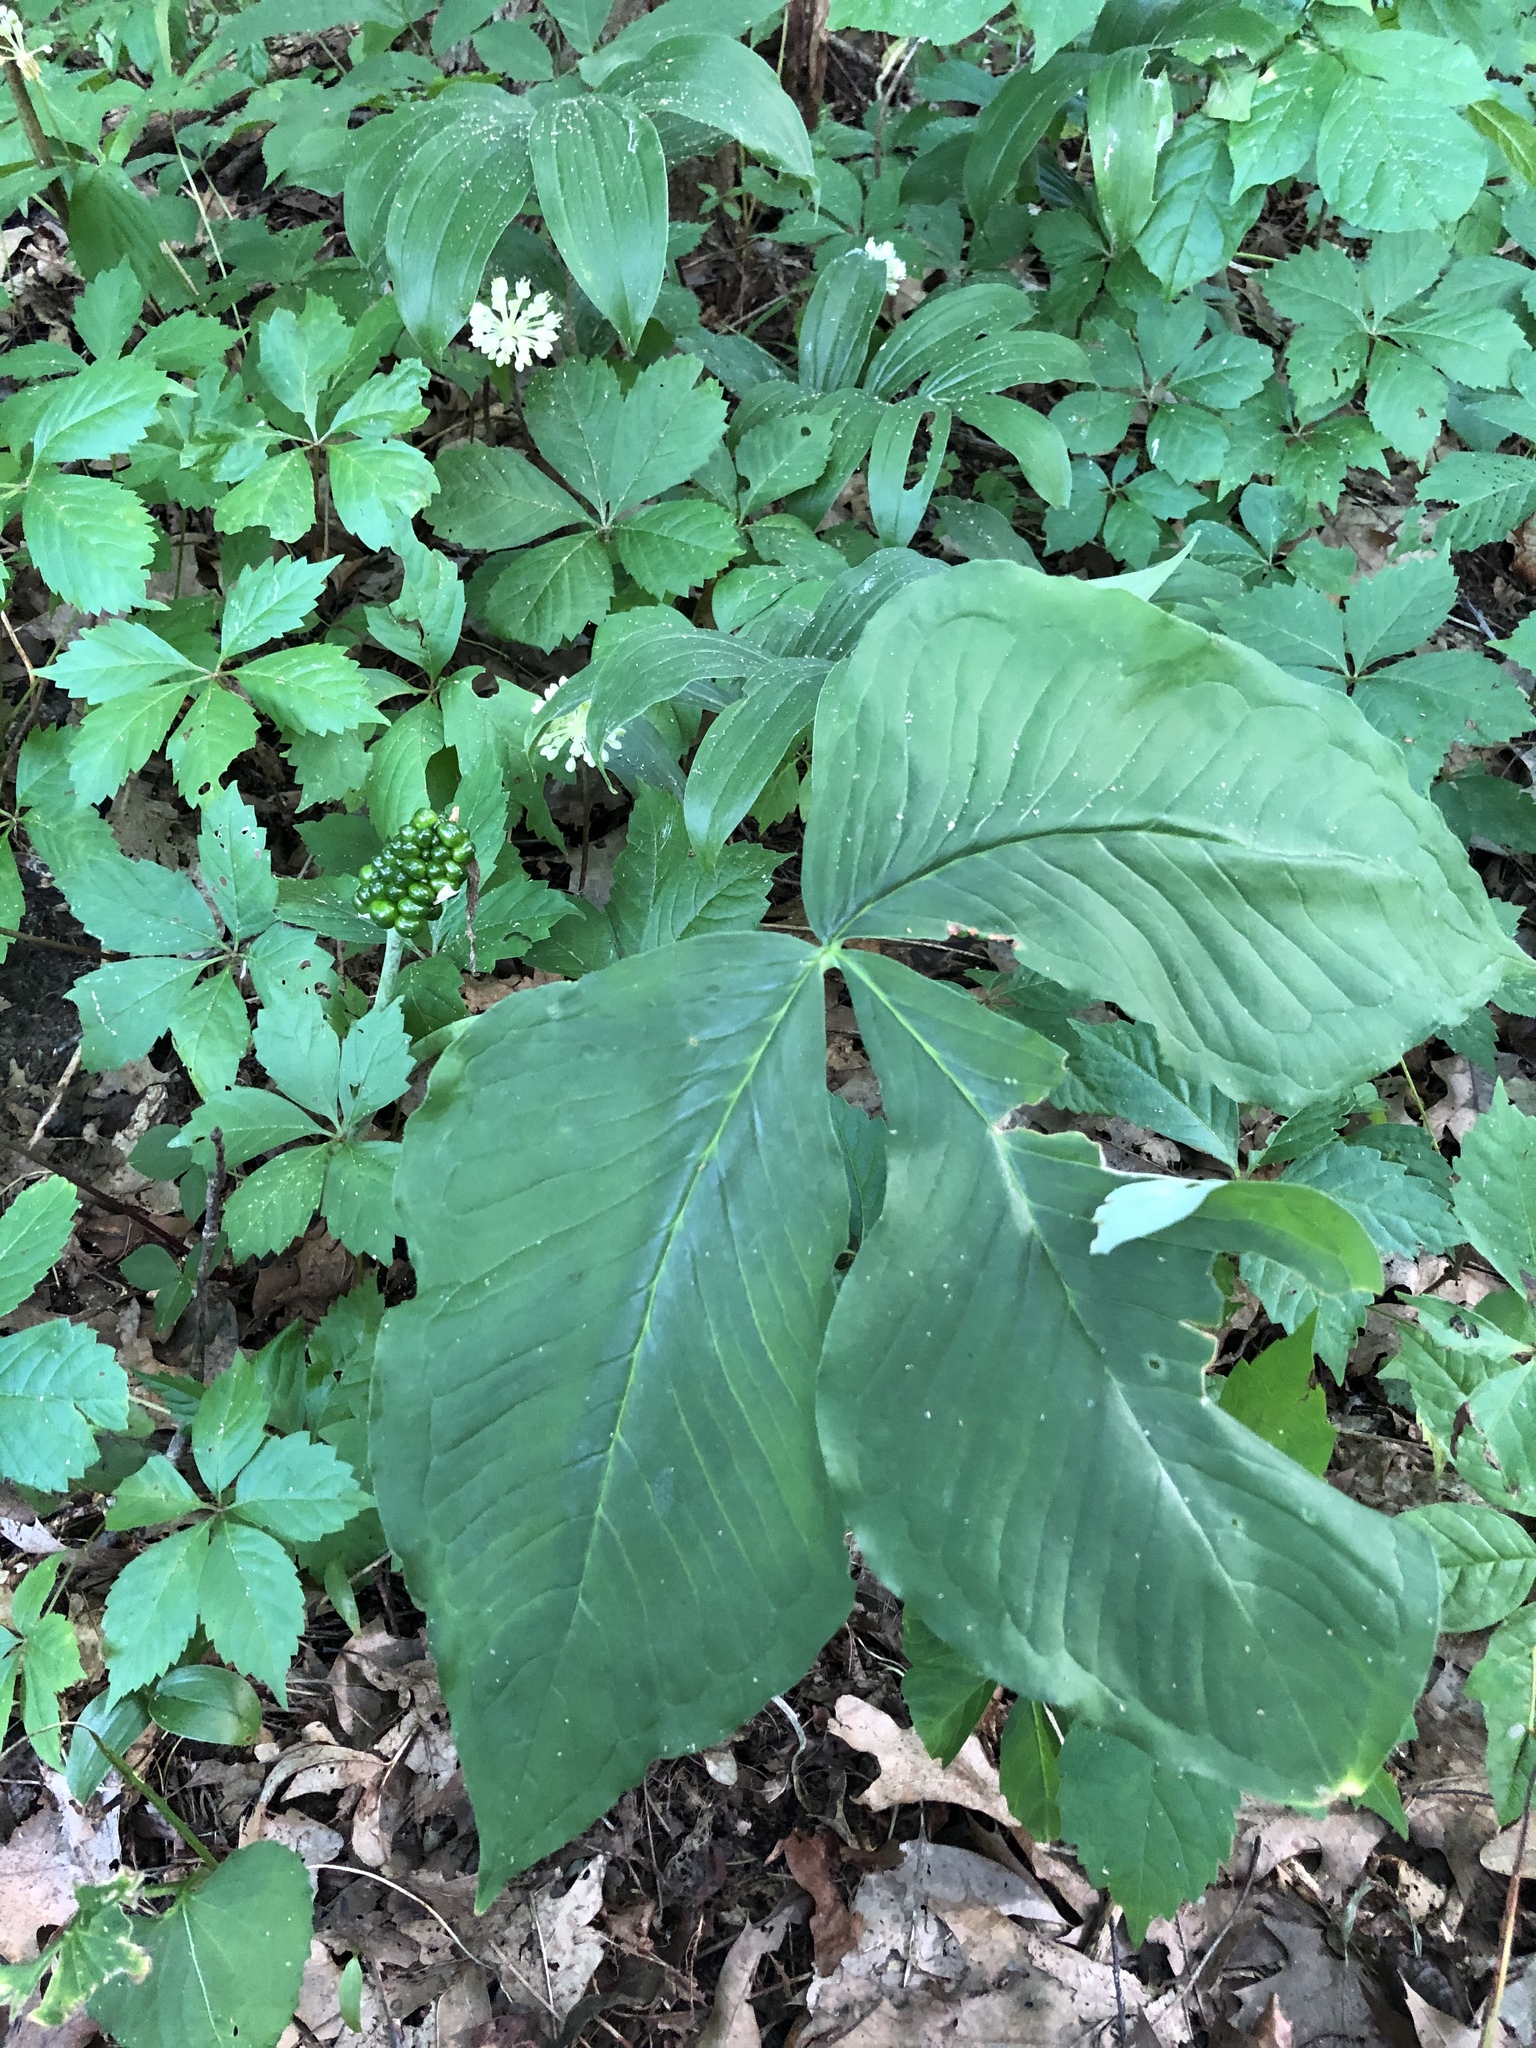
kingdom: Plantae
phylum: Tracheophyta
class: Liliopsida
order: Alismatales
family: Araceae
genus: Arisaema
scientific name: Arisaema triphyllum
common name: Jack-in-the-pulpit
